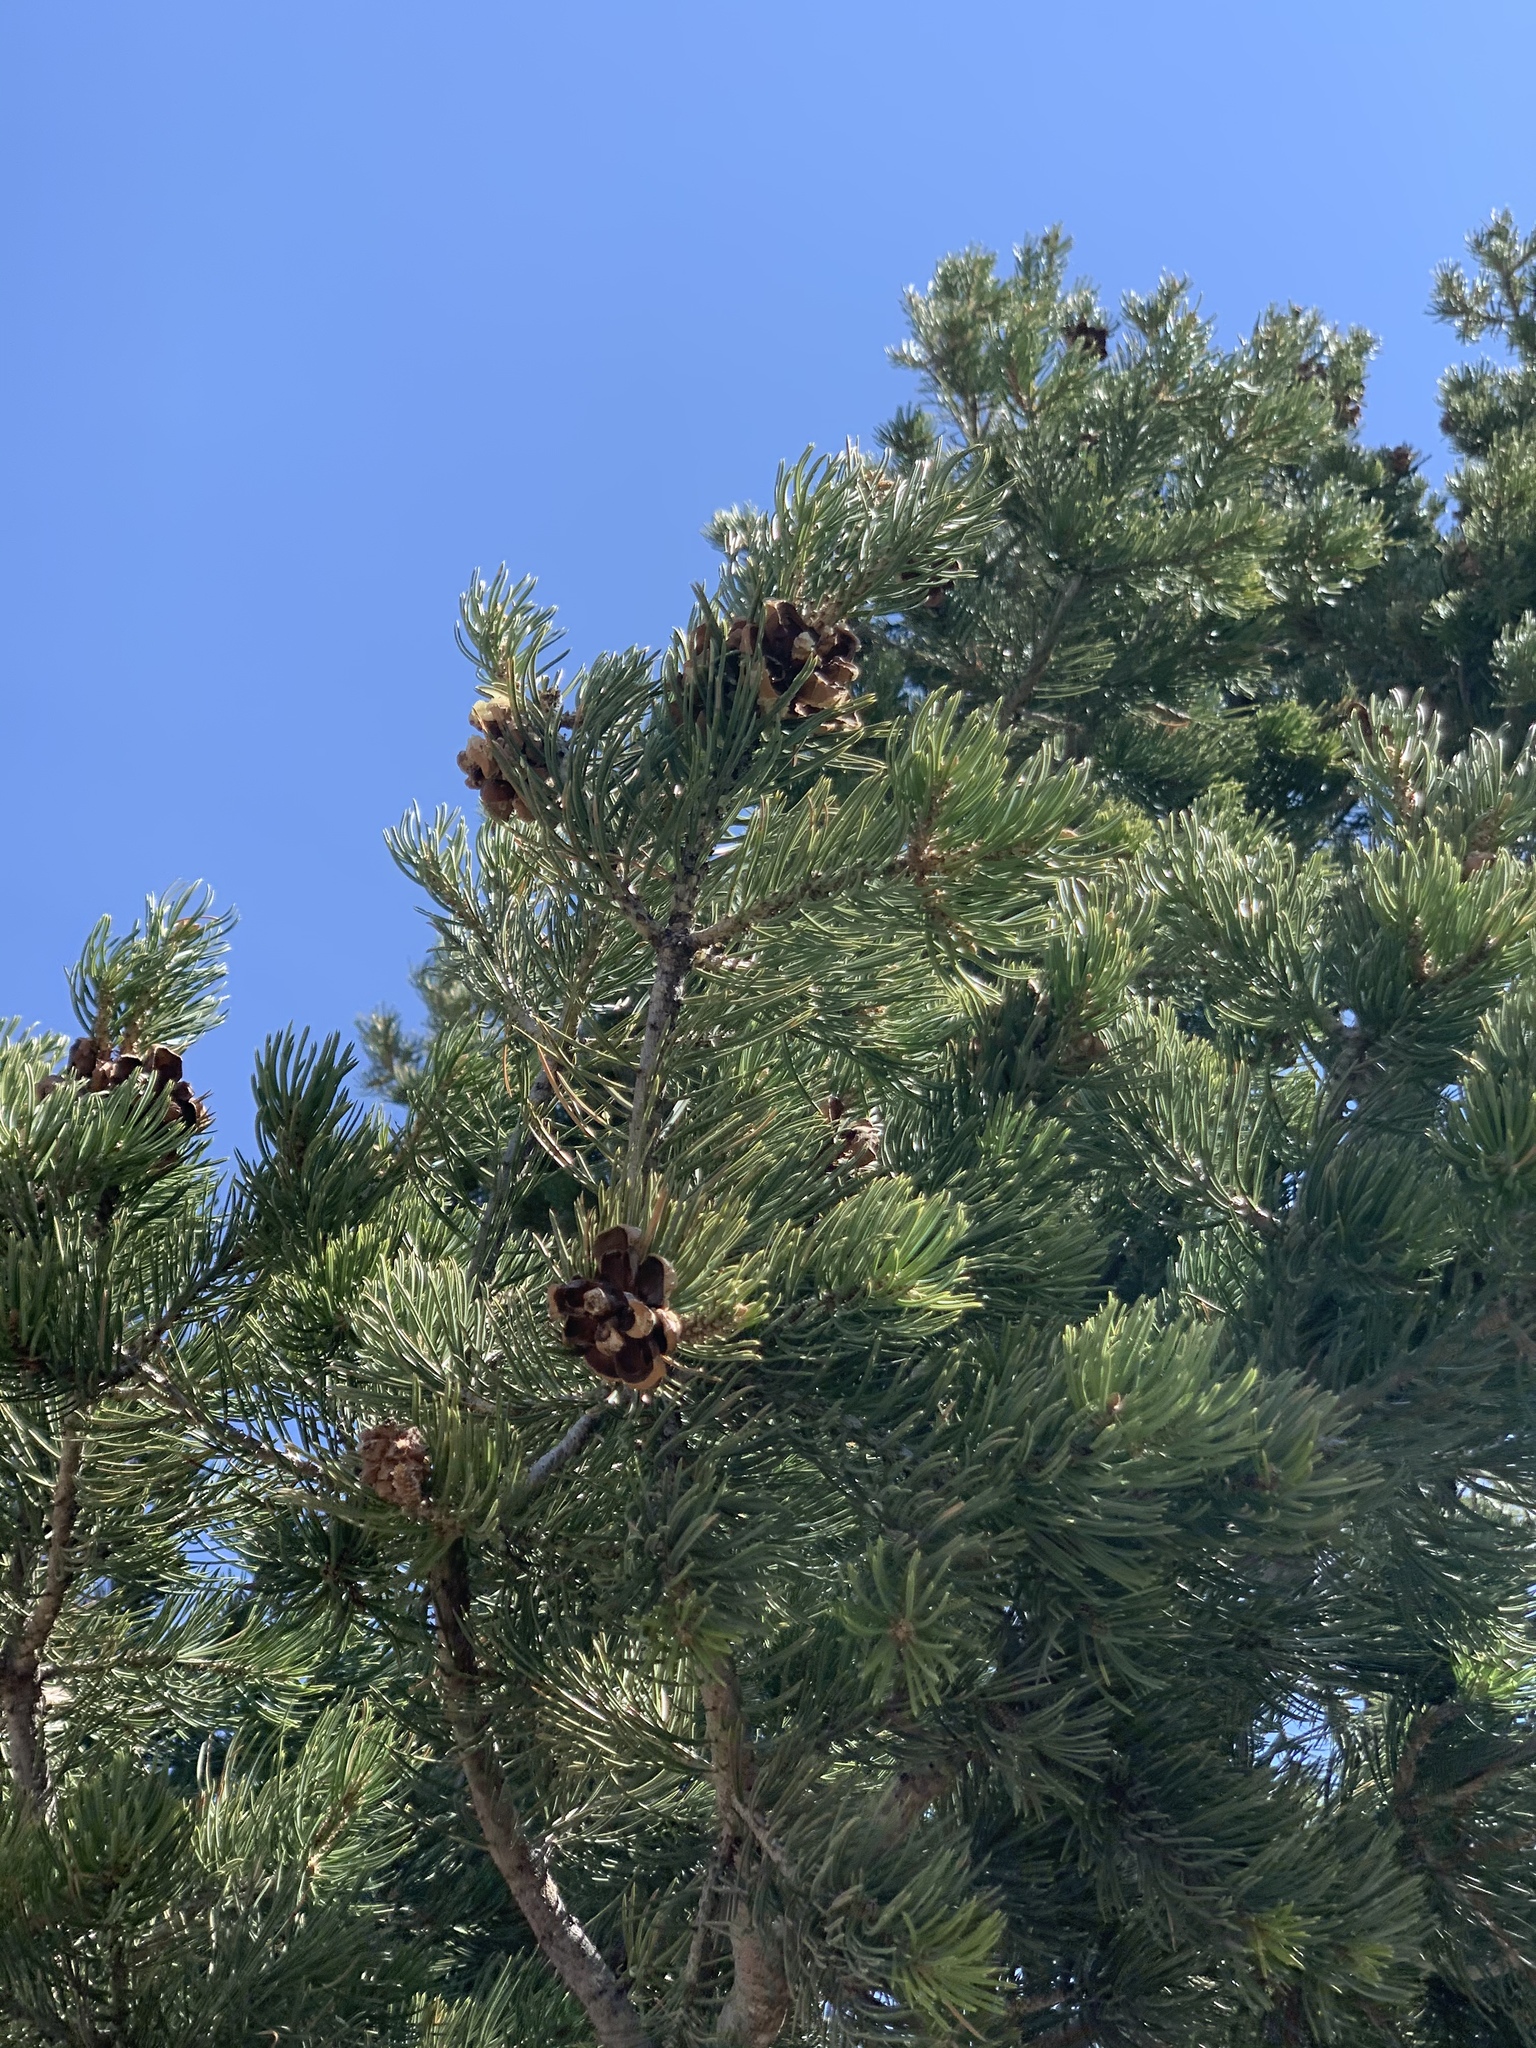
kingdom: Plantae
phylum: Tracheophyta
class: Pinopsida
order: Pinales
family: Pinaceae
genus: Pinus
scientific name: Pinus edulis
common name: Colorado pinyon
